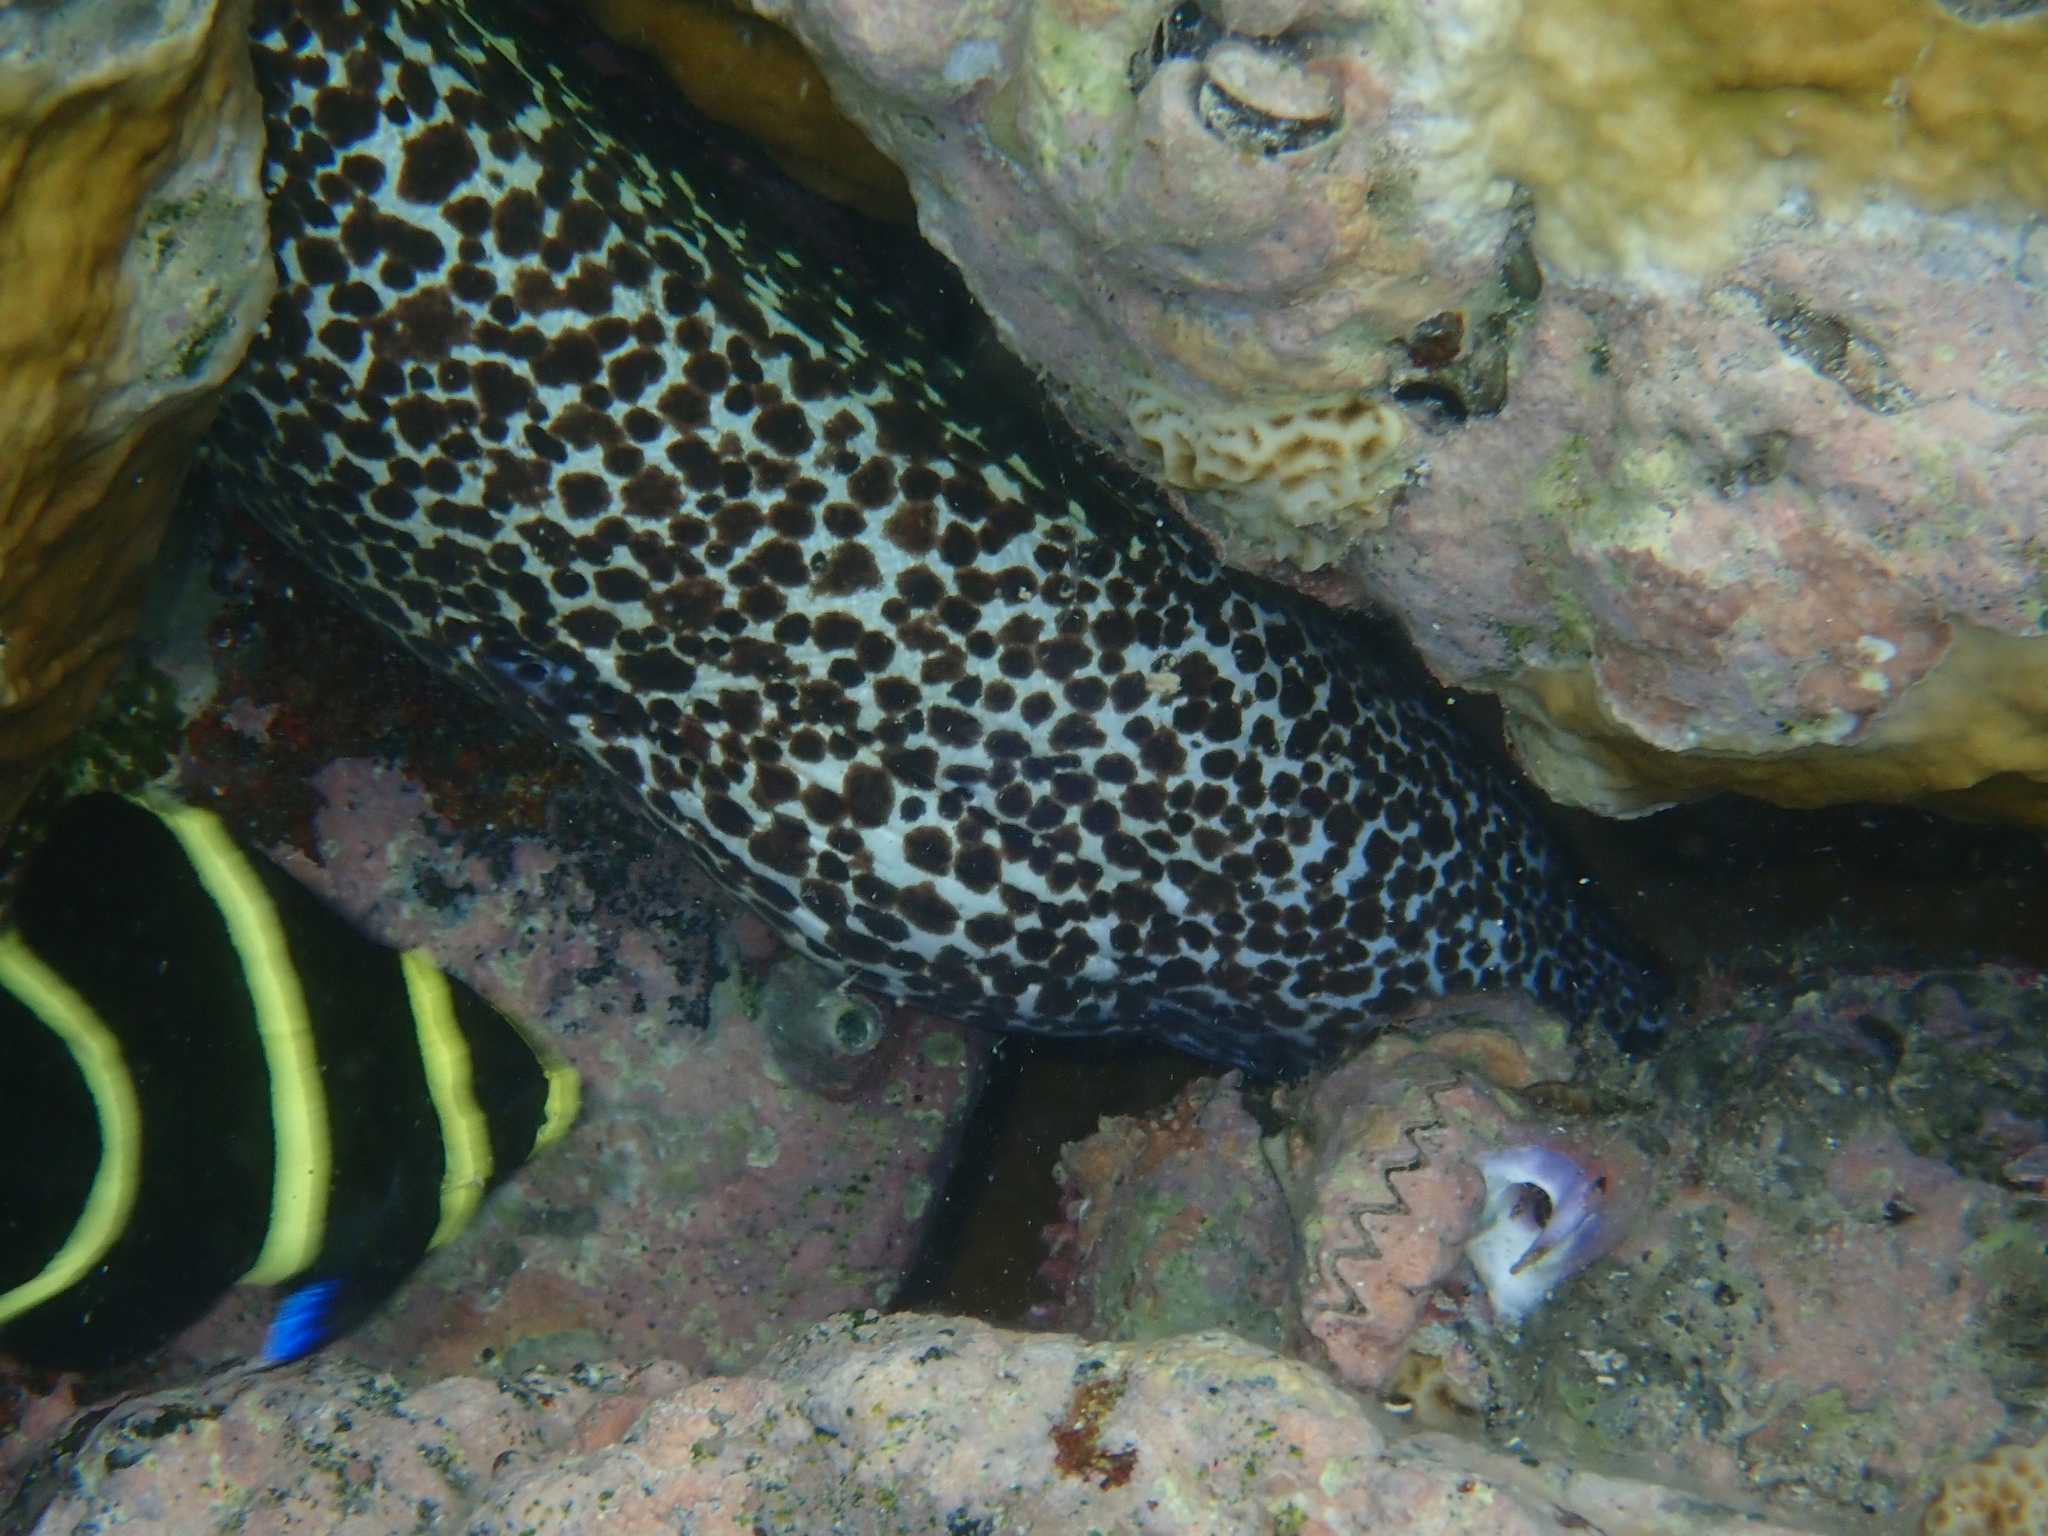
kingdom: Animalia
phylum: Chordata
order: Anguilliformes
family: Muraenidae
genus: Gymnothorax
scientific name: Gymnothorax moringa
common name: Spotted moray
